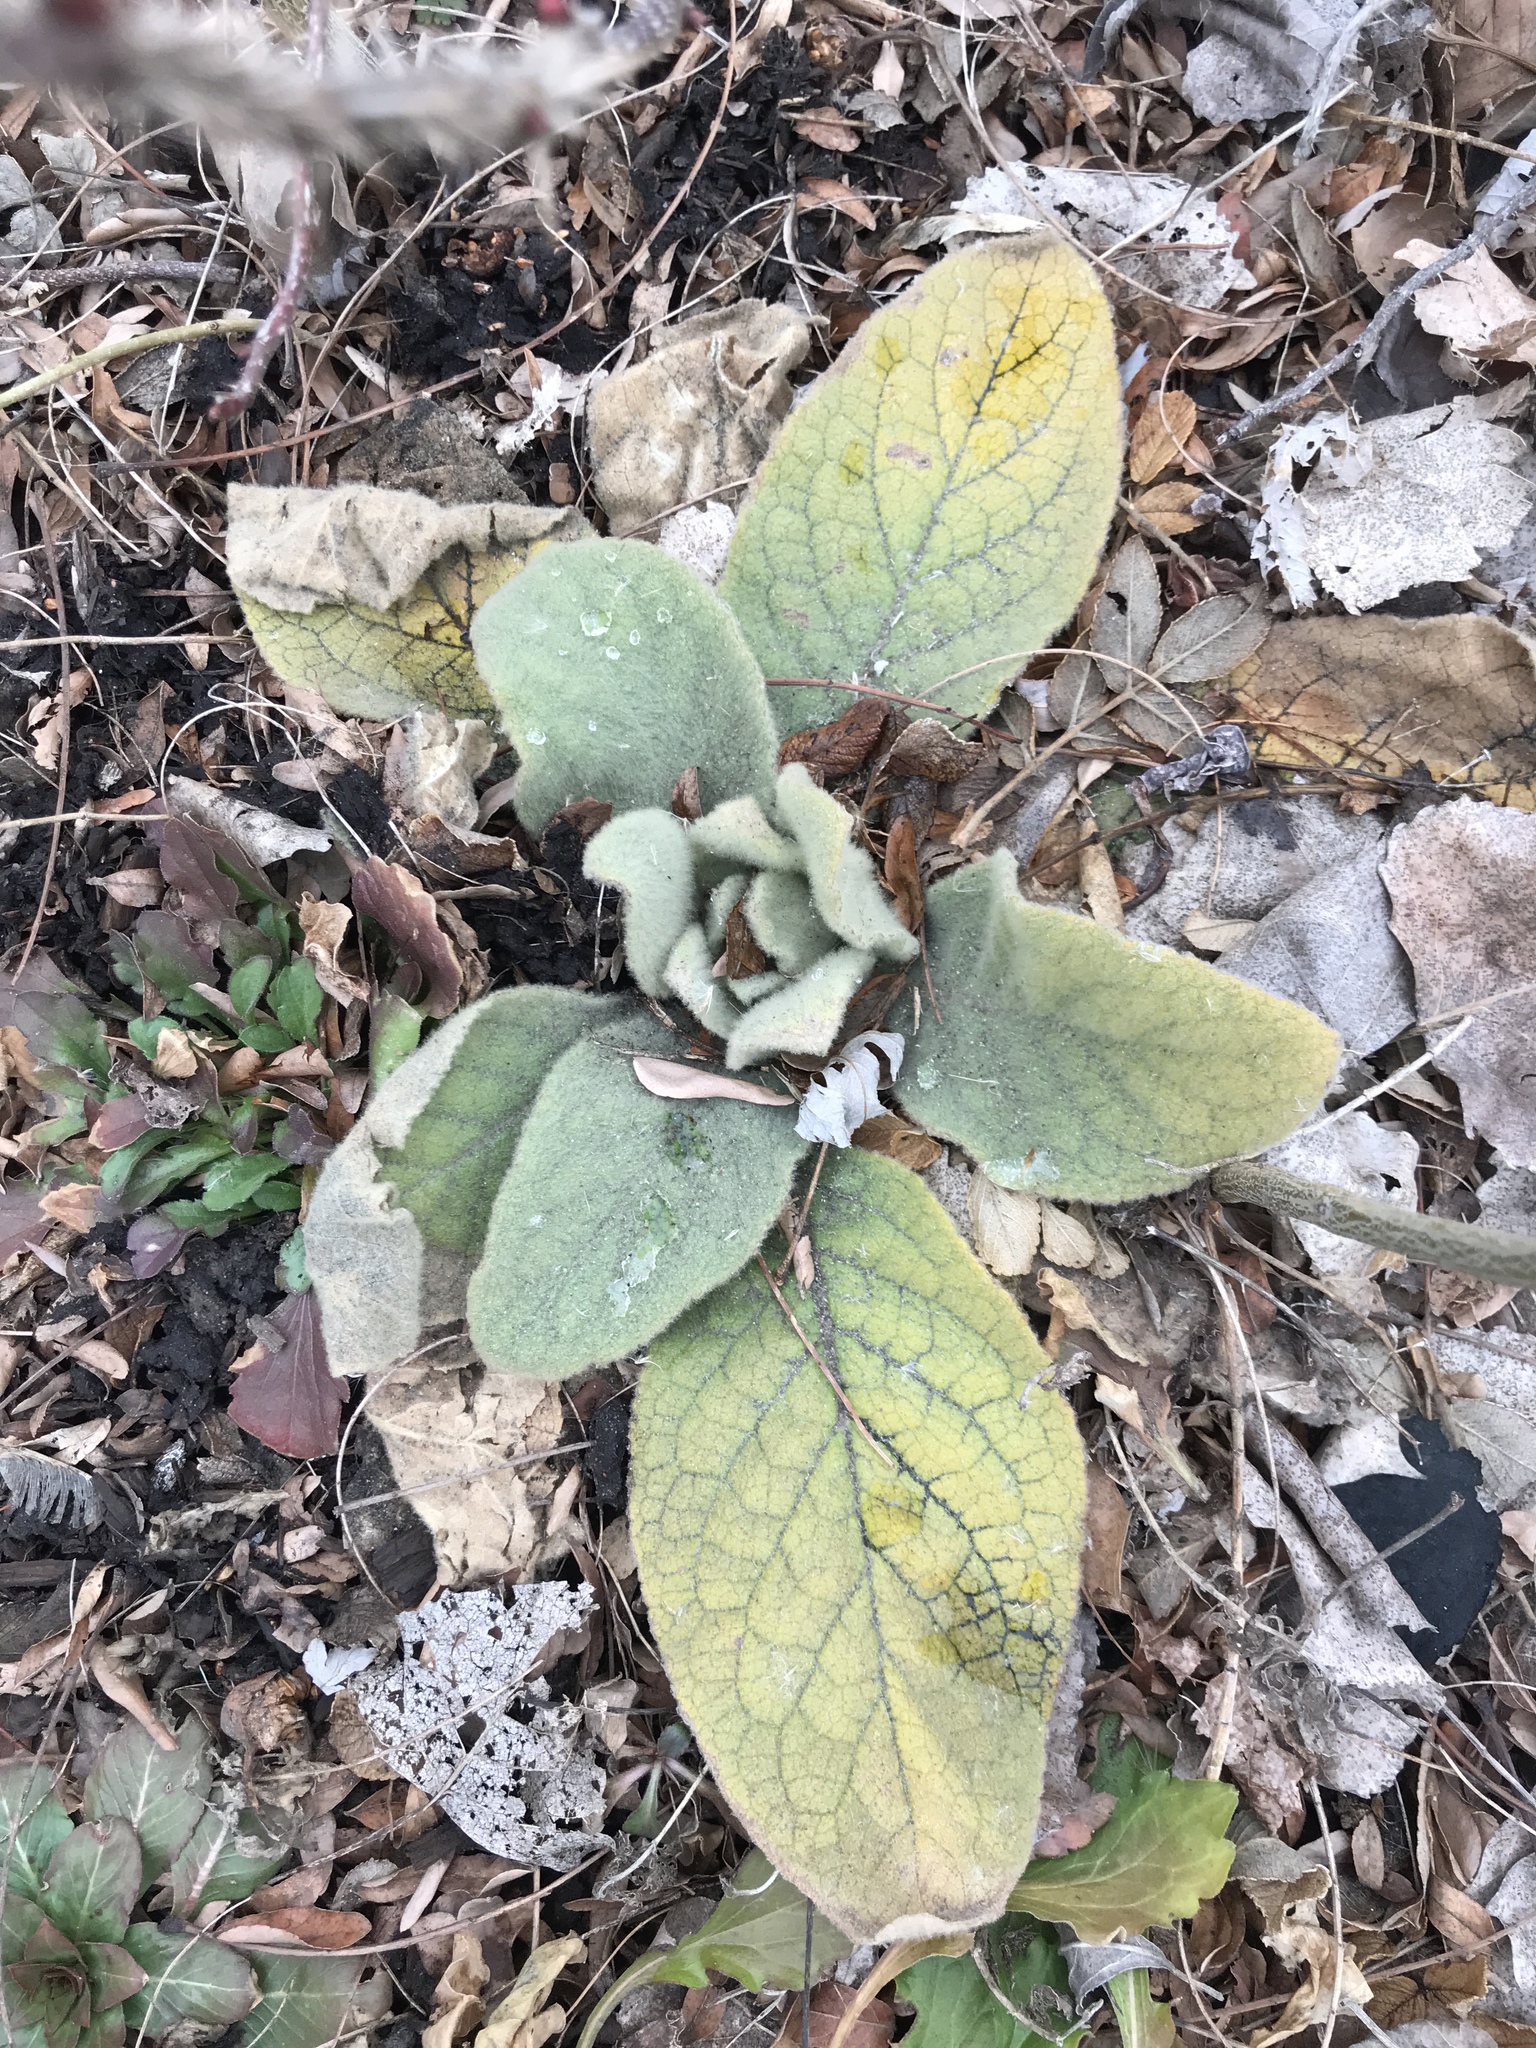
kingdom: Plantae
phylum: Tracheophyta
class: Magnoliopsida
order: Lamiales
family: Scrophulariaceae
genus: Verbascum
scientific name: Verbascum thapsus
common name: Common mullein
